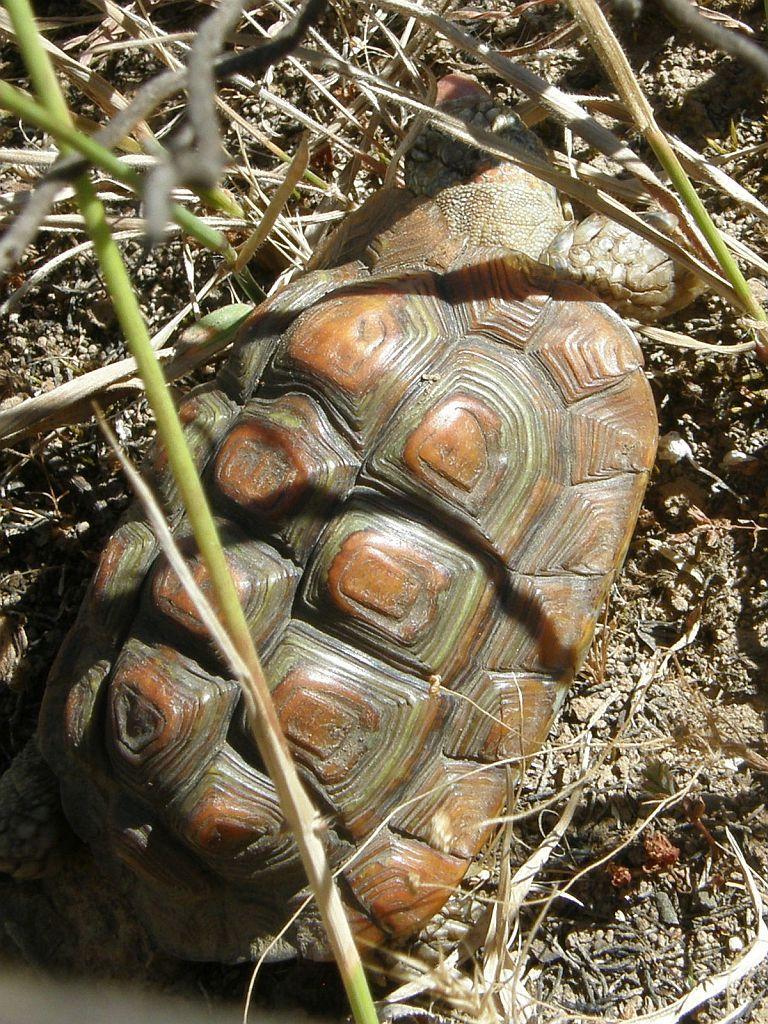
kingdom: Animalia
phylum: Chordata
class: Testudines
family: Testudinidae
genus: Homopus
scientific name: Homopus areolatus
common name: Parrot-beaked tortoise
